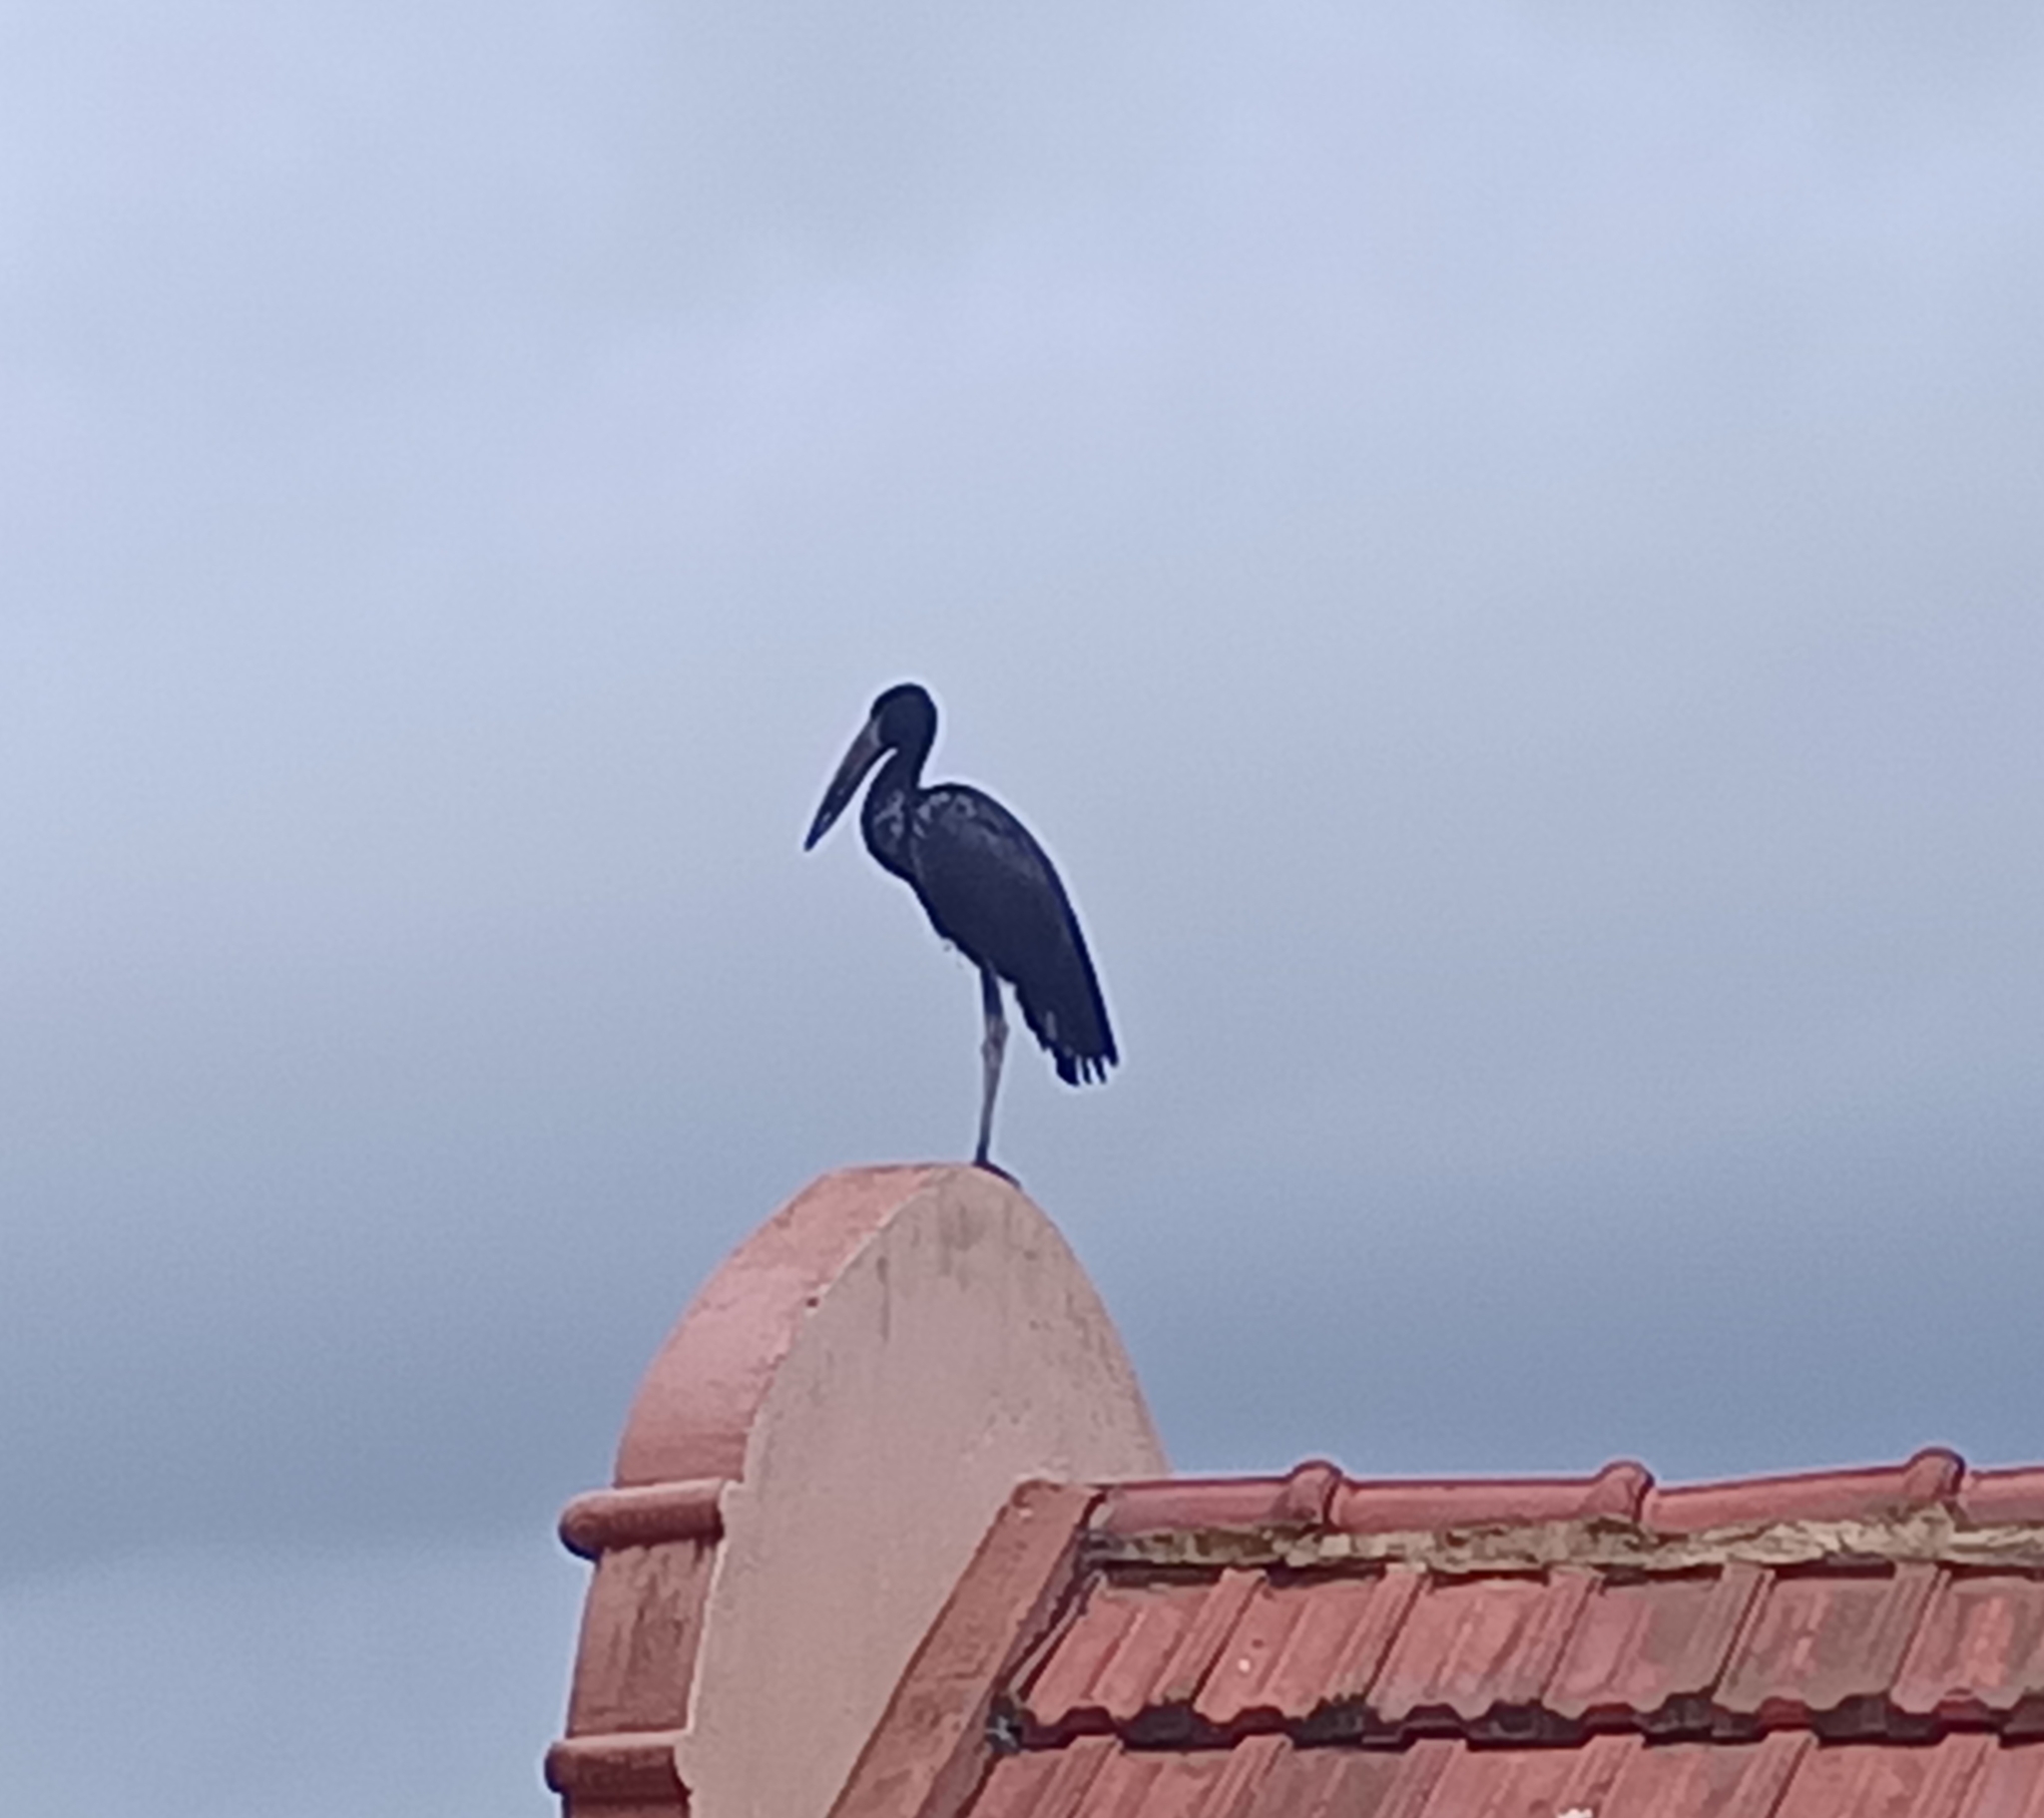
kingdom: Animalia
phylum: Chordata
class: Aves
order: Ciconiiformes
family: Ciconiidae
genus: Anastomus
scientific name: Anastomus lamelligerus
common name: African openbill
